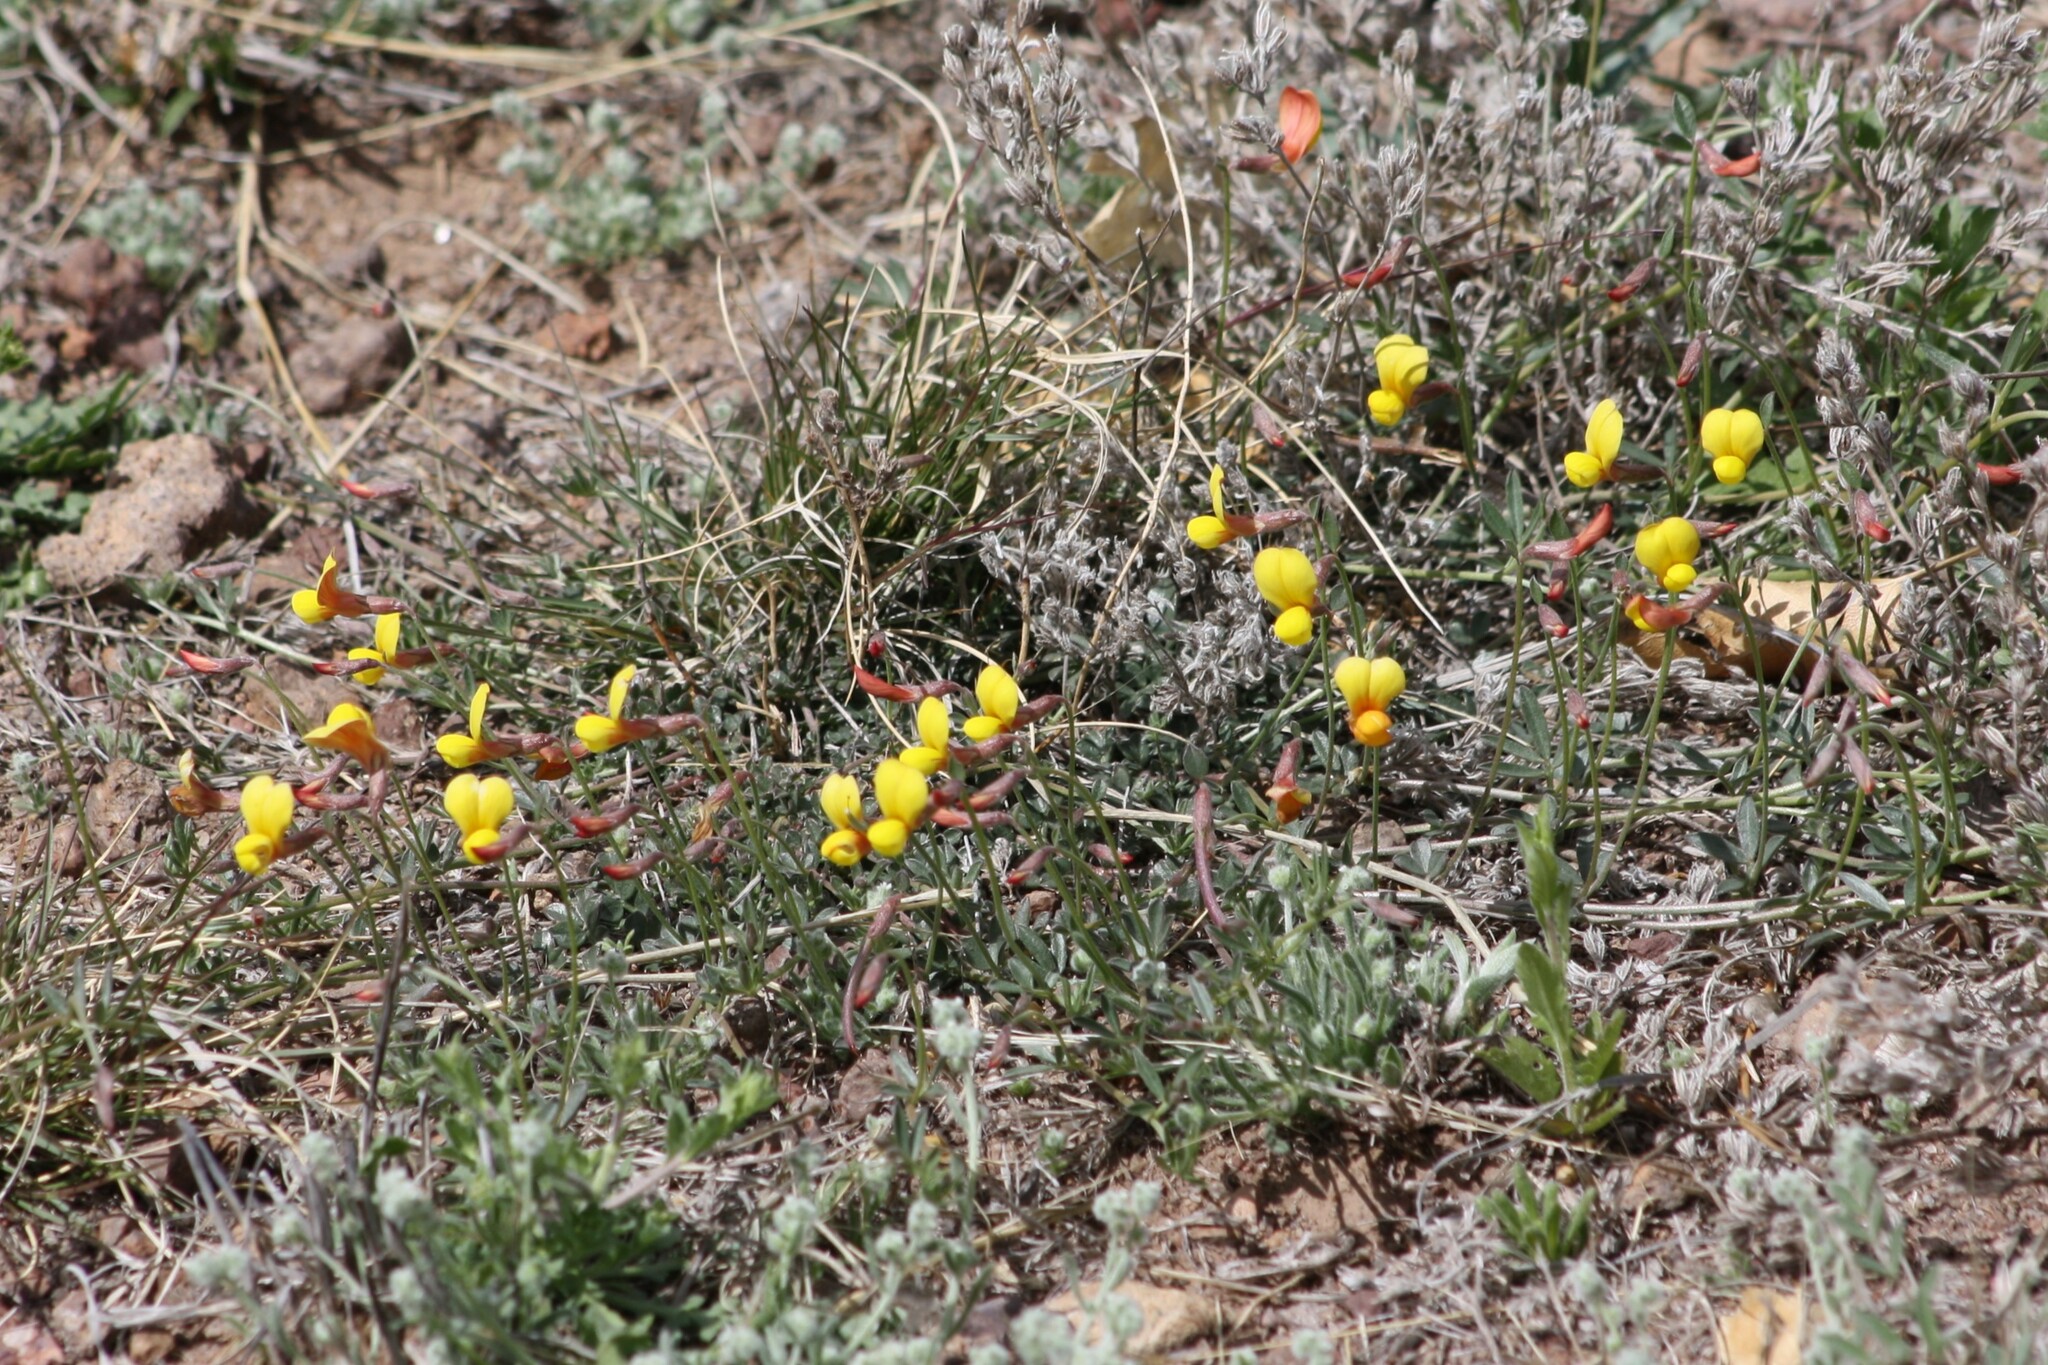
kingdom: Plantae
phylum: Tracheophyta
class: Magnoliopsida
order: Fabales
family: Fabaceae
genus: Acmispon
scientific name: Acmispon oroboides
